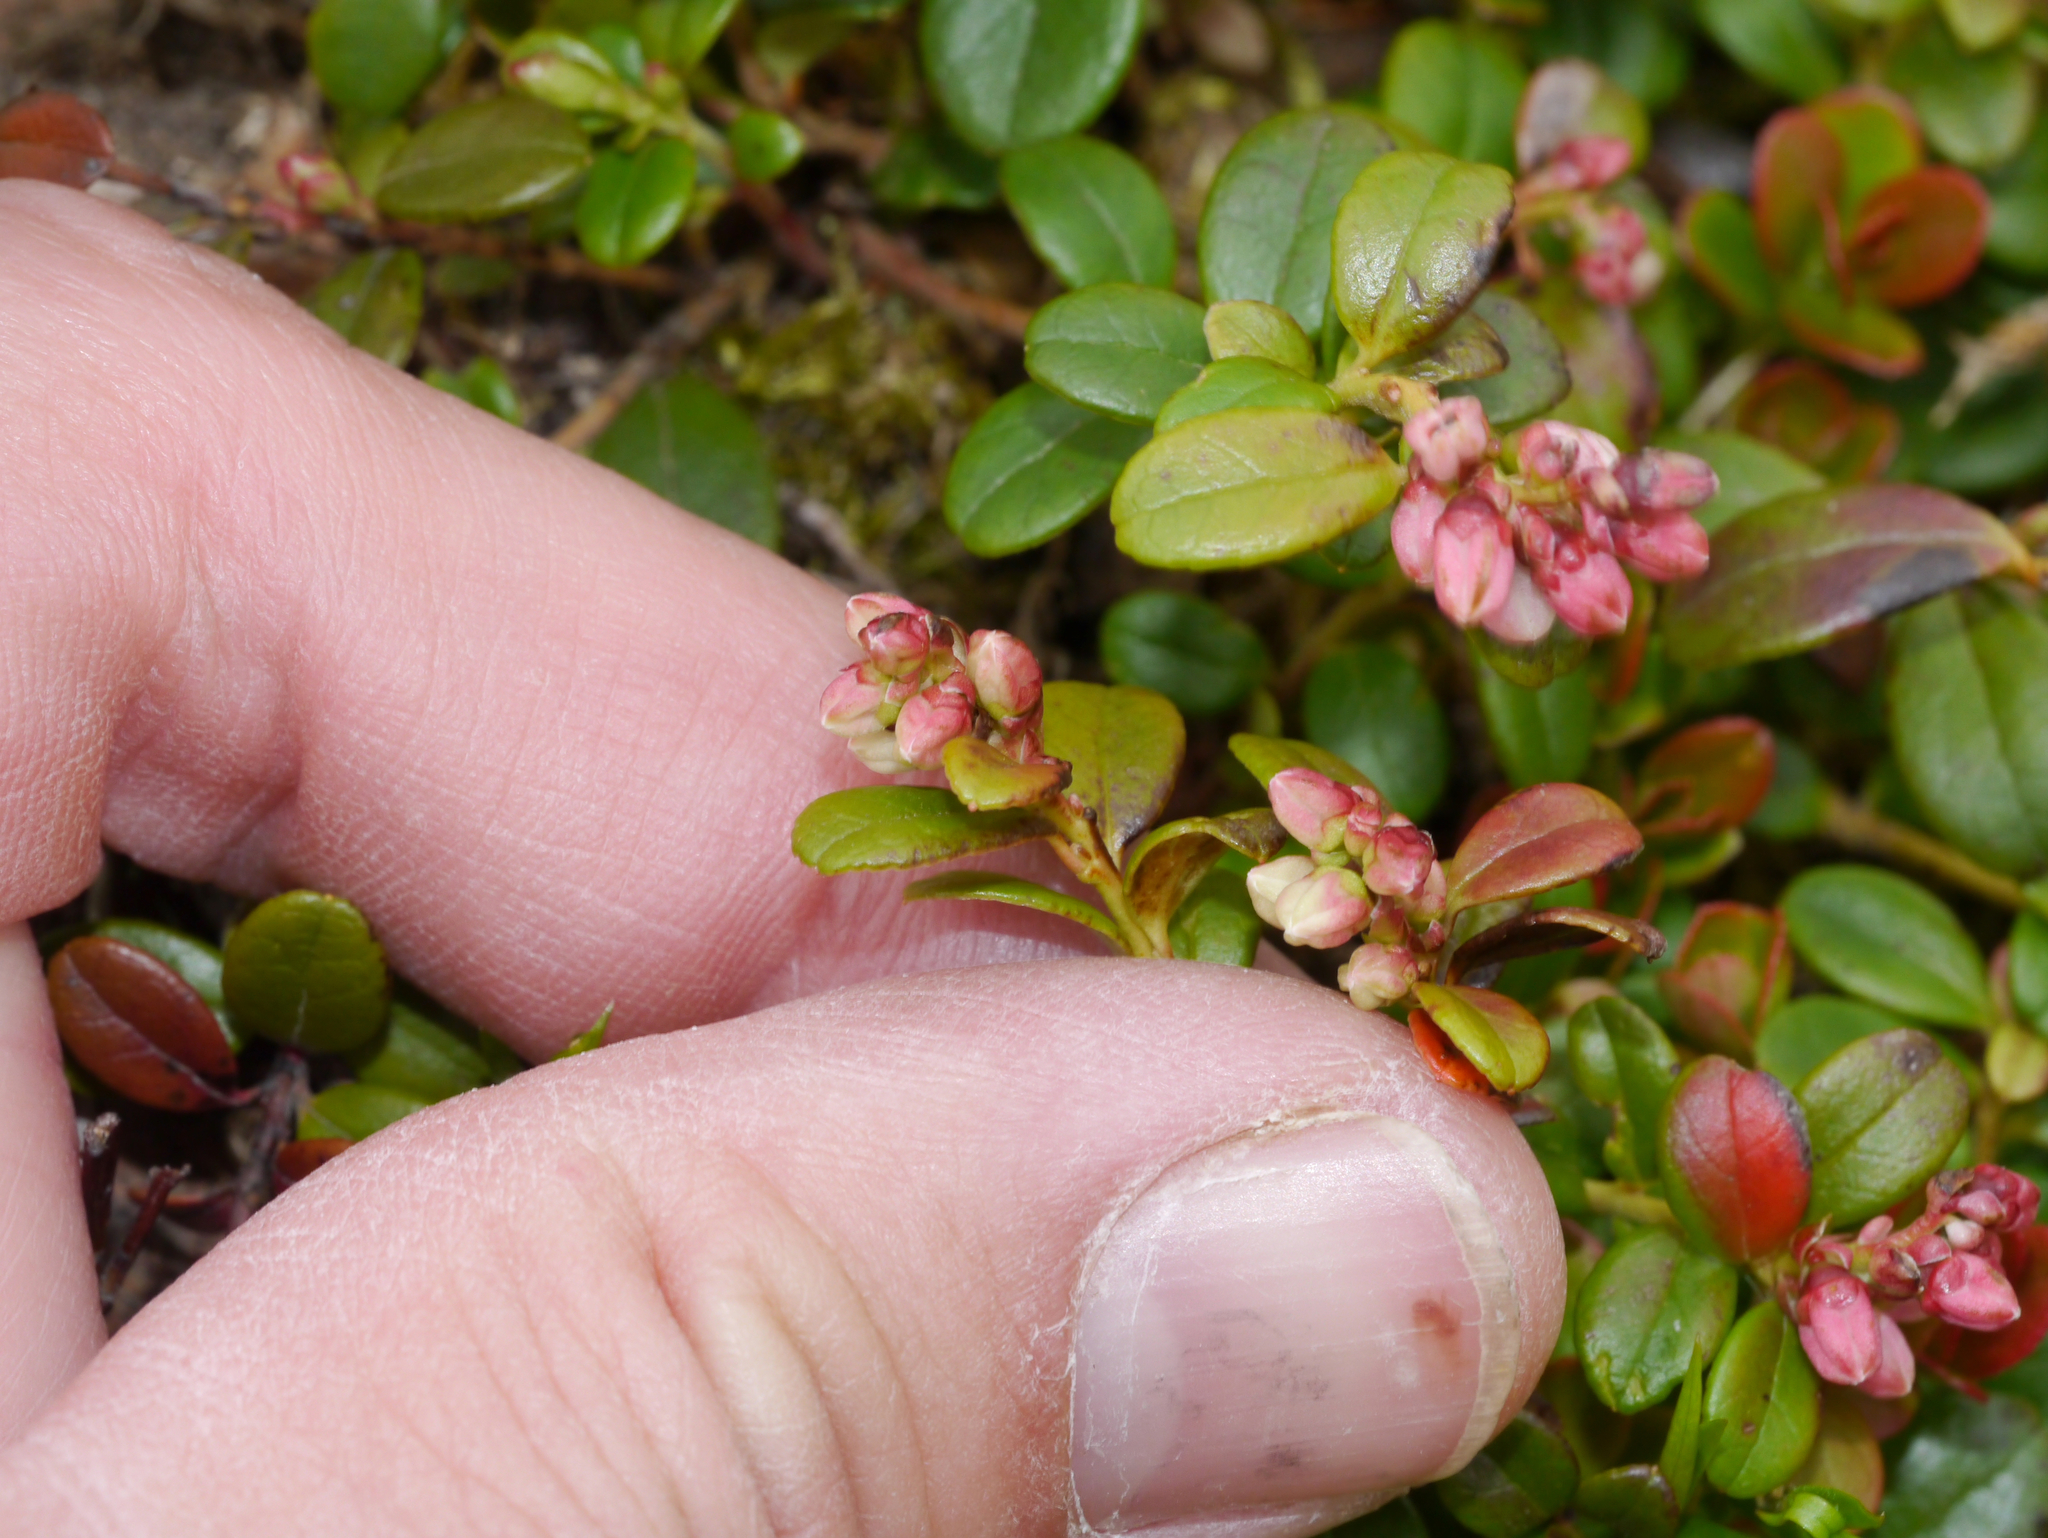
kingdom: Plantae
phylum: Tracheophyta
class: Magnoliopsida
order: Ericales
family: Ericaceae
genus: Vaccinium
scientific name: Vaccinium vitis-idaea
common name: Cowberry
